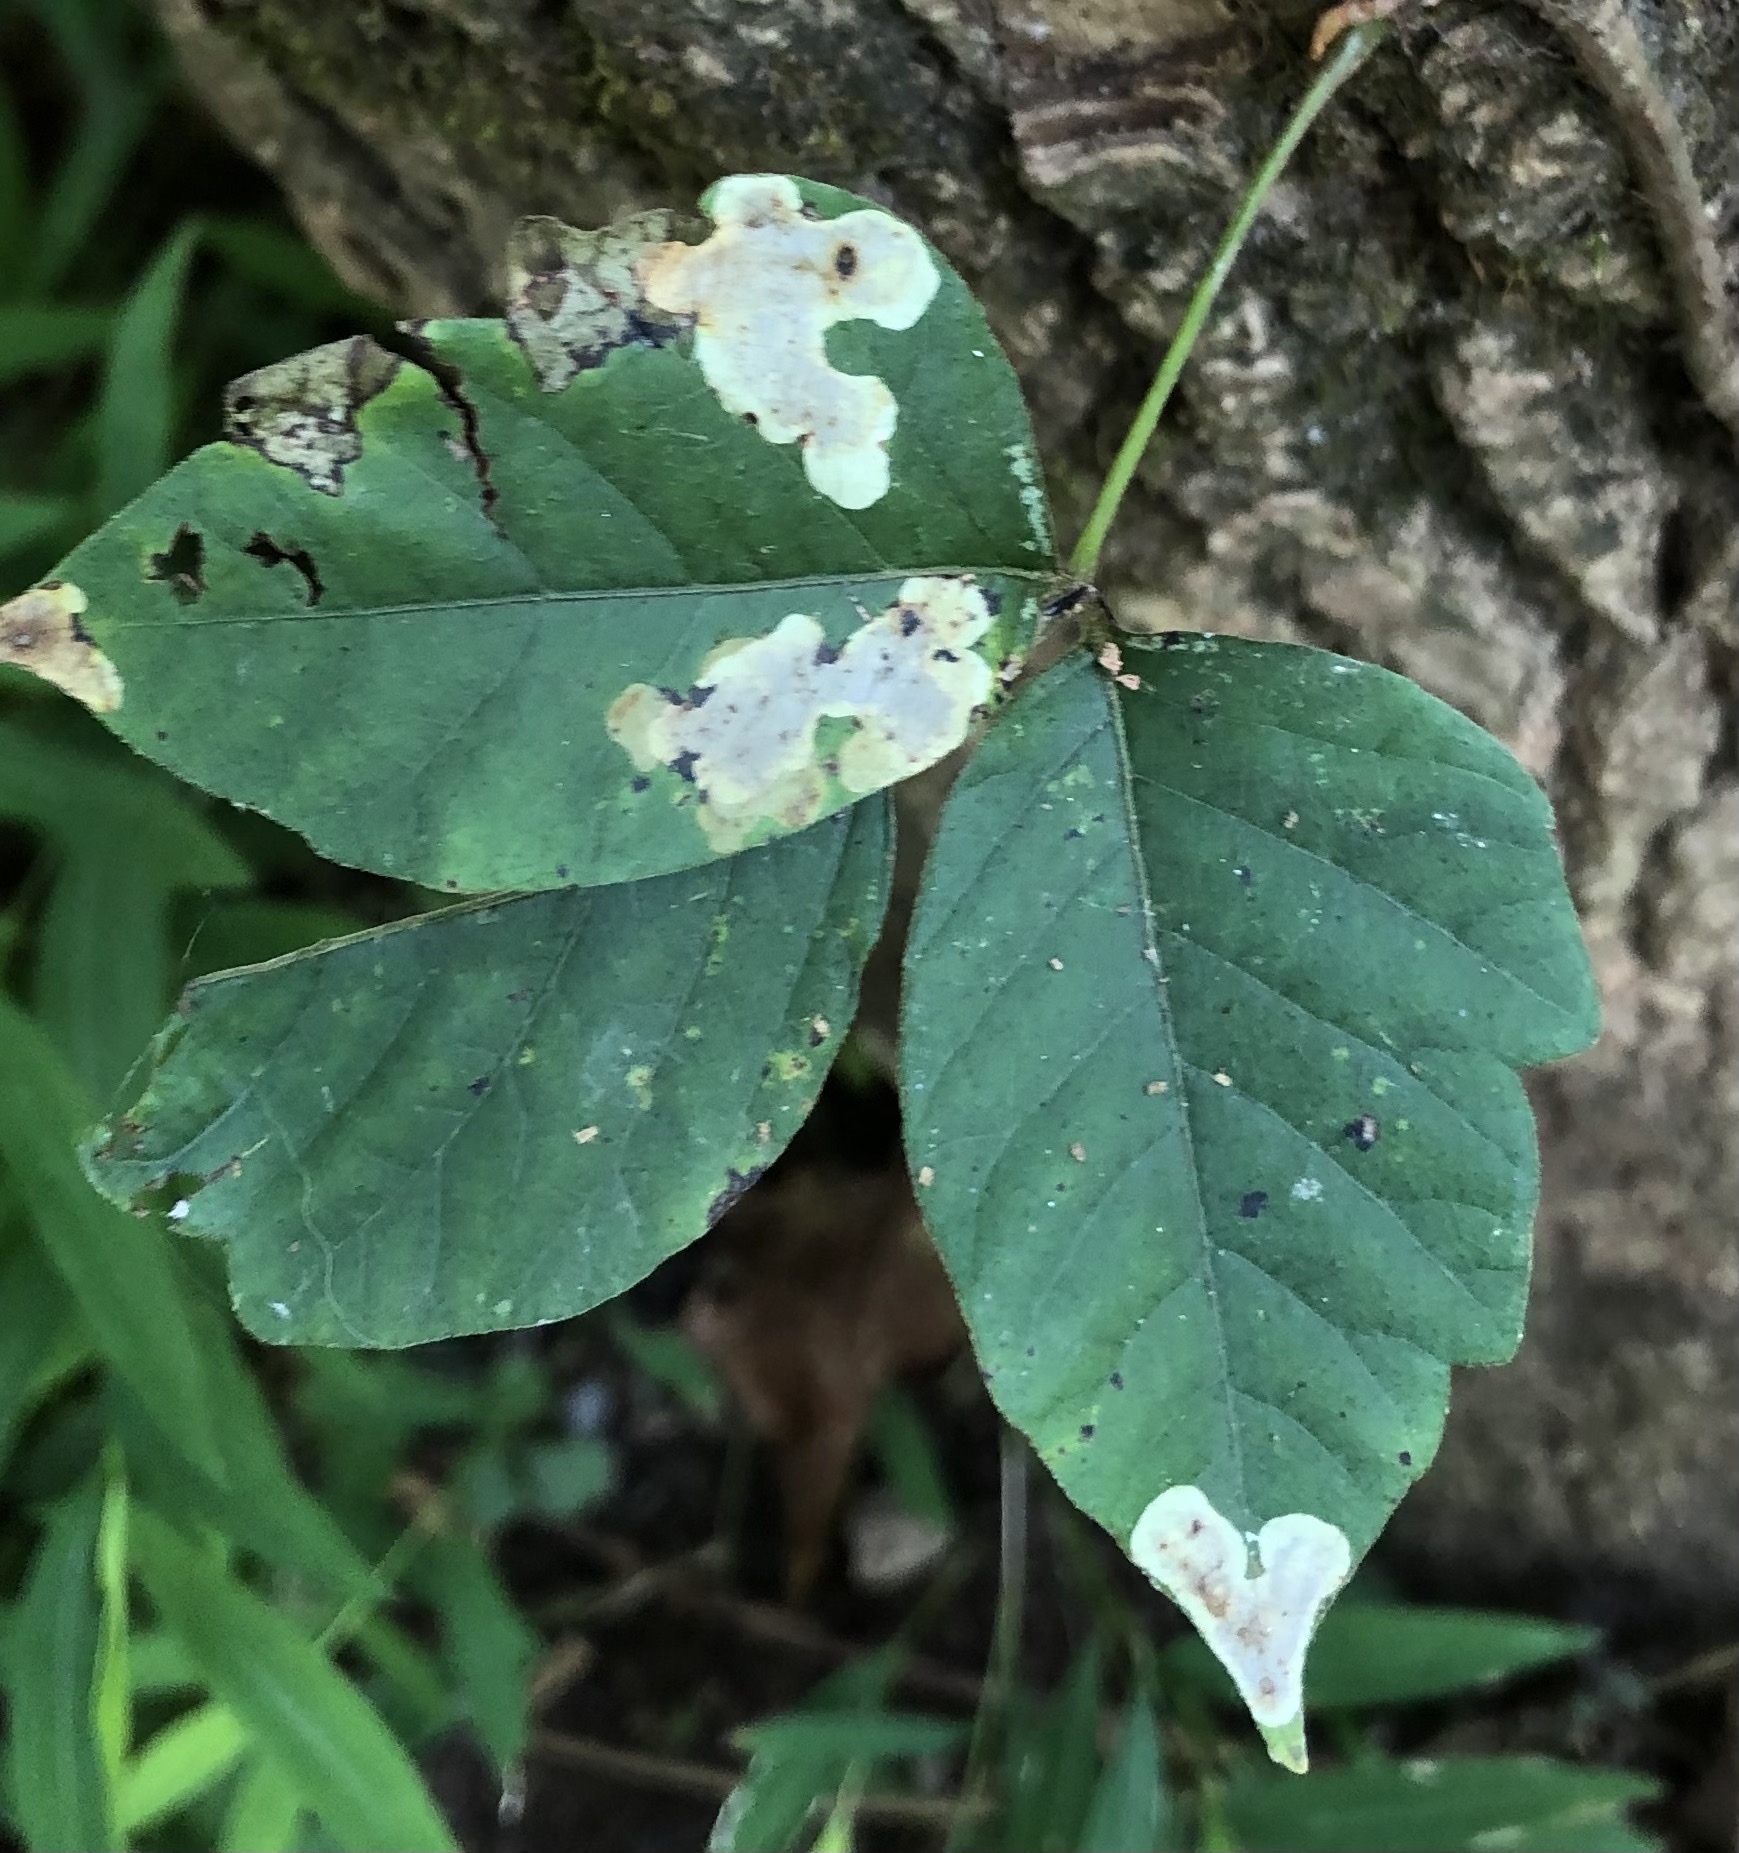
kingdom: Animalia
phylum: Arthropoda
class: Insecta
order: Lepidoptera
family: Gracillariidae
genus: Cameraria
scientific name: Cameraria guttifinitella
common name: Poison ivy leaf-miner moth
